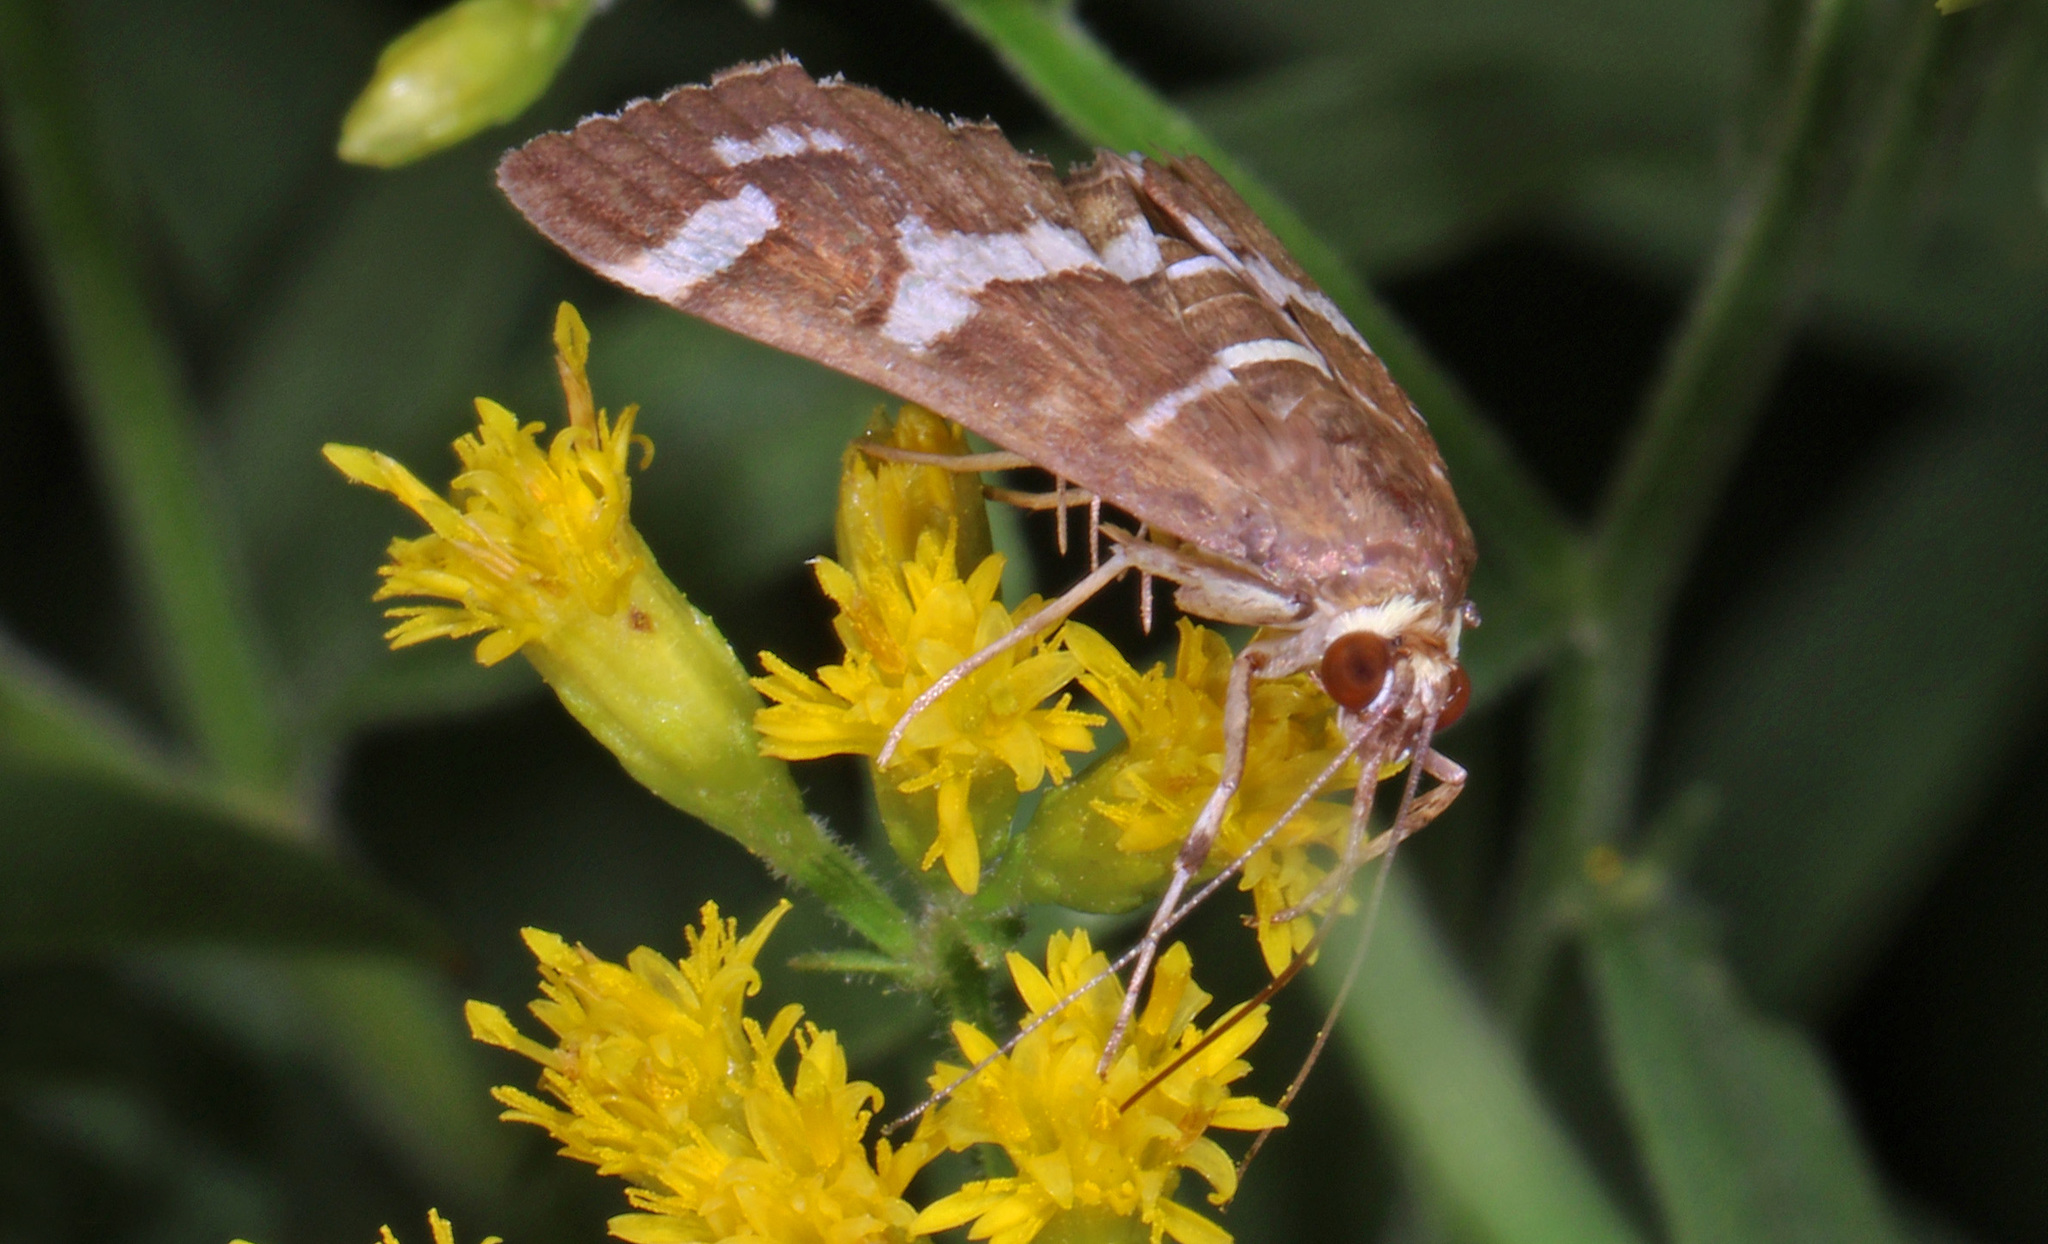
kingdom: Animalia
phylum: Arthropoda
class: Insecta
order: Lepidoptera
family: Crambidae
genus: Spoladea
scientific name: Spoladea recurvalis
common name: Beet webworm moth
